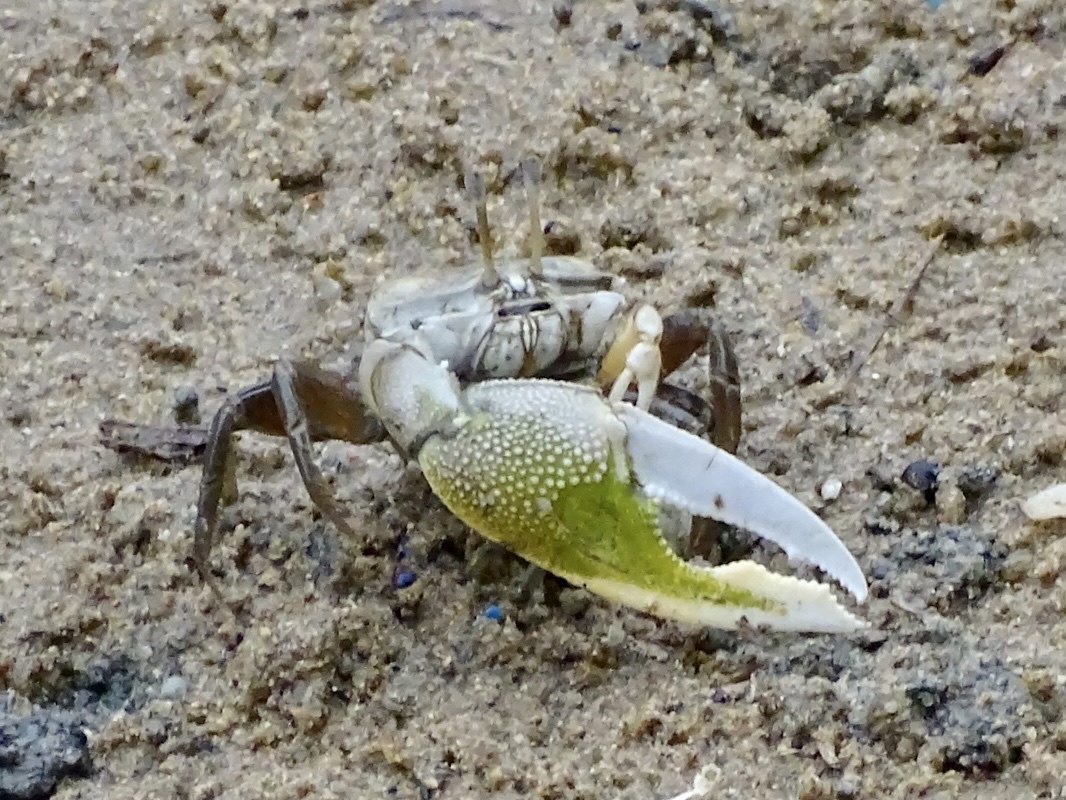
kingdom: Animalia
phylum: Arthropoda
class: Malacostraca
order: Decapoda
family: Ocypodidae
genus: Gelasimus
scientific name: Gelasimus borealis
